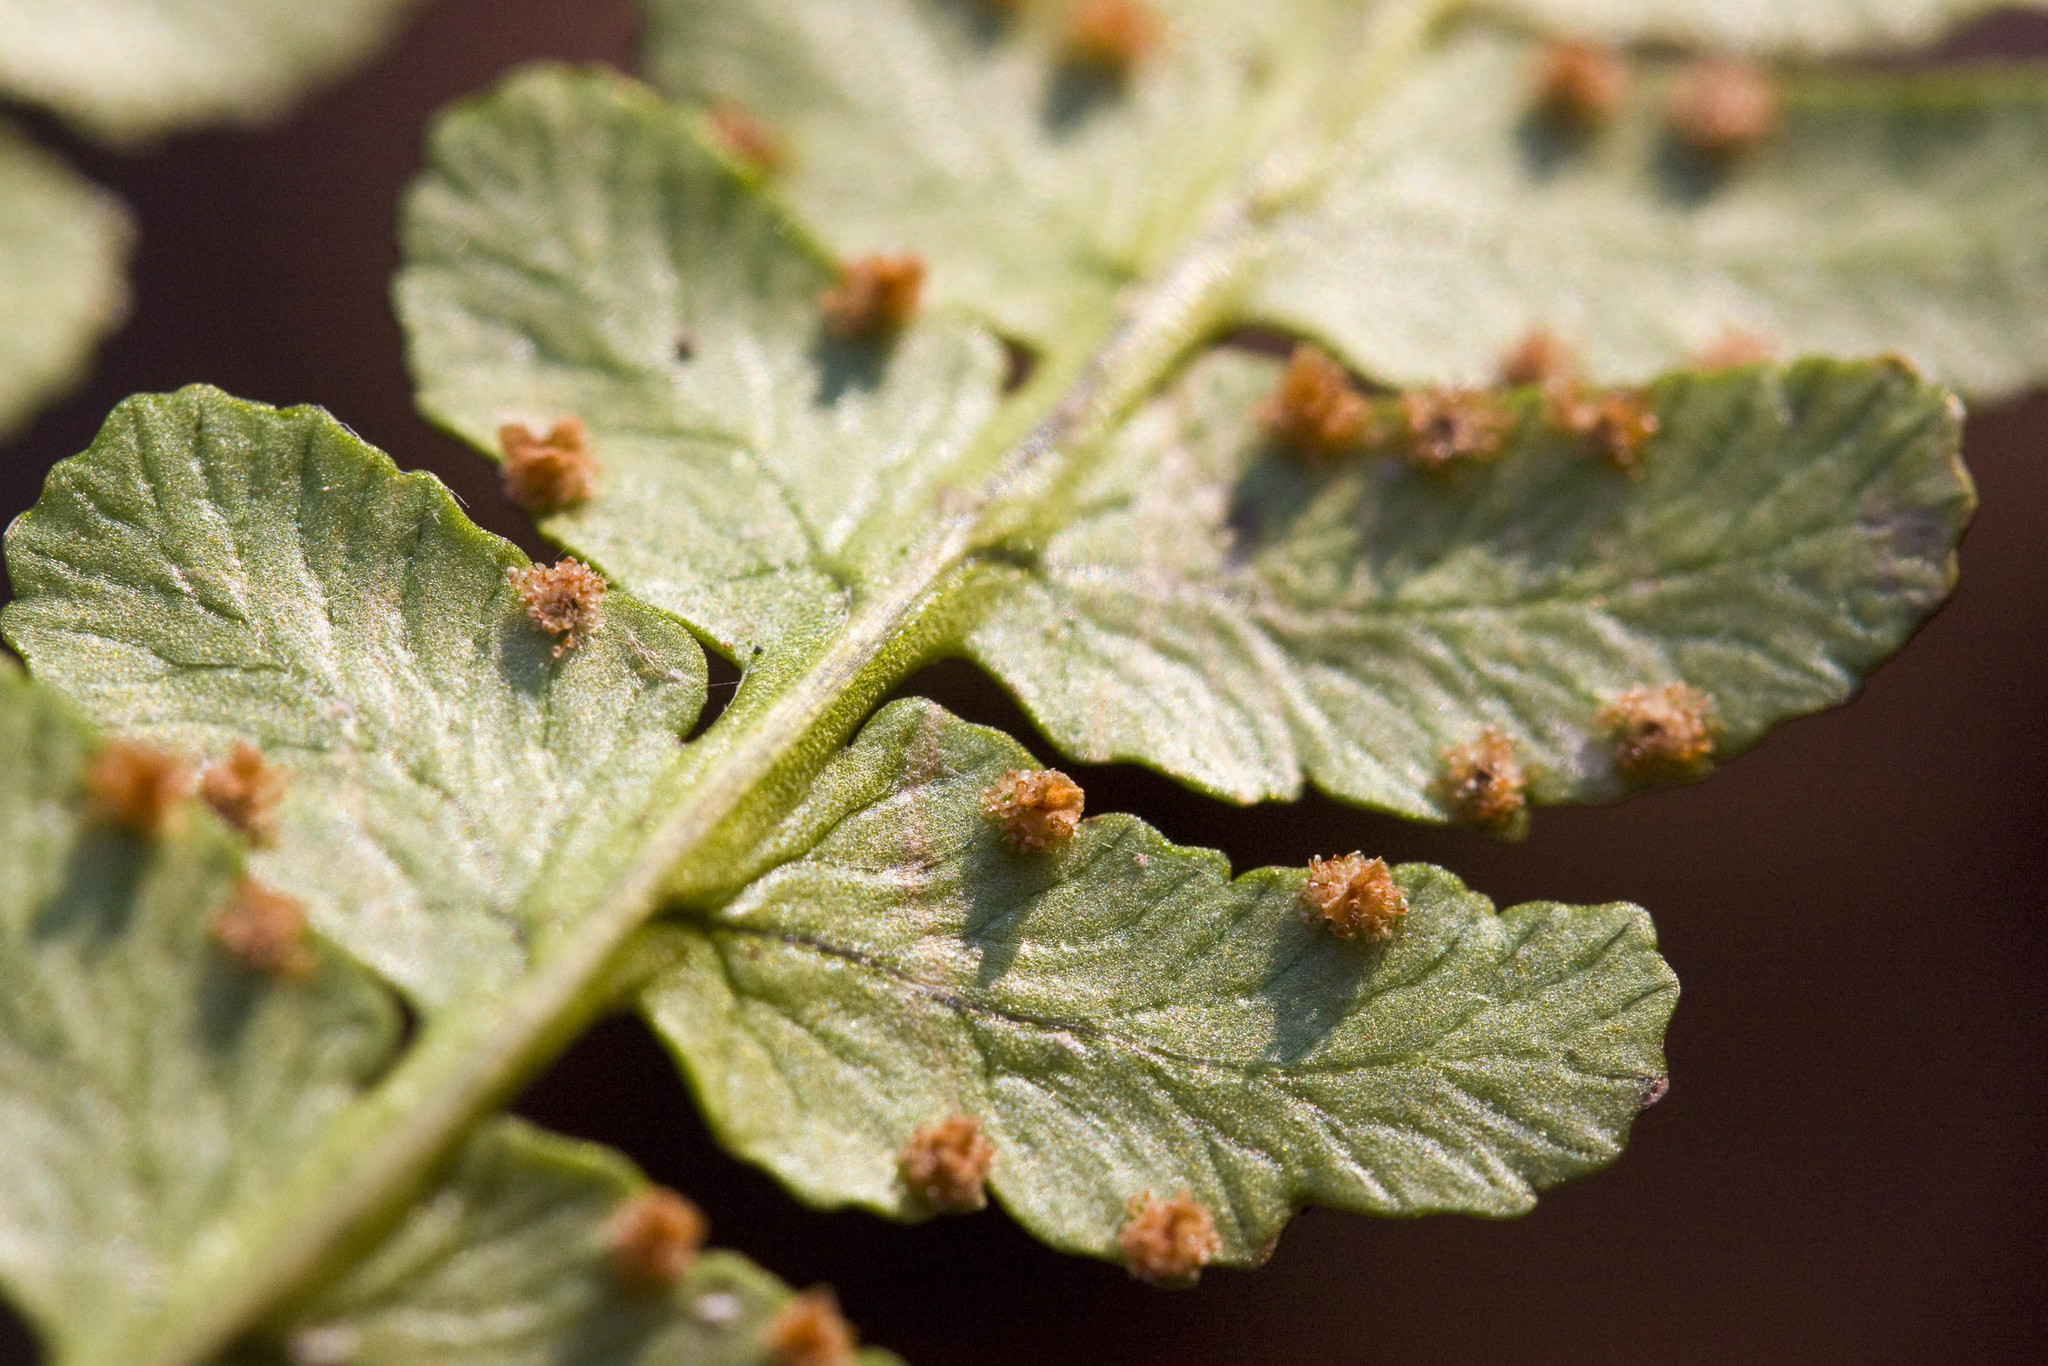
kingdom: Plantae
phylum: Tracheophyta
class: Polypodiopsida
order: Polypodiales
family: Dryopteridaceae
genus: Dryopteris
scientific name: Dryopteris marginalis
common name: Marginal wood fern
